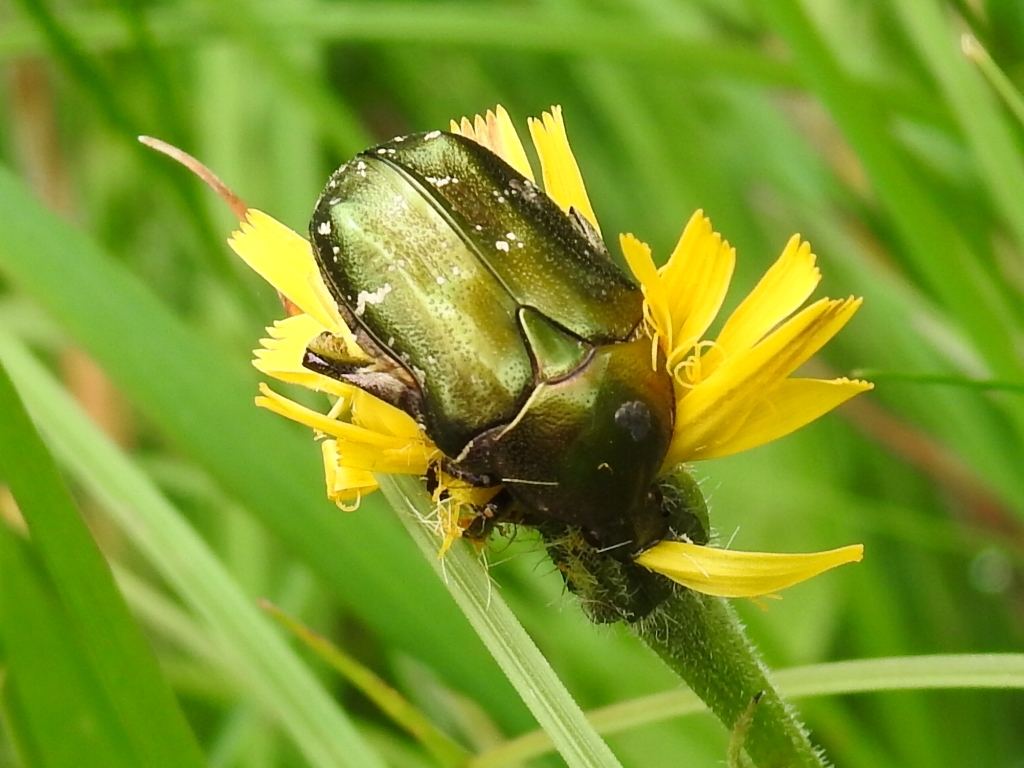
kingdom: Animalia
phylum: Arthropoda
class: Insecta
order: Coleoptera
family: Scarabaeidae
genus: Protaetia
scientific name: Protaetia cuprea
